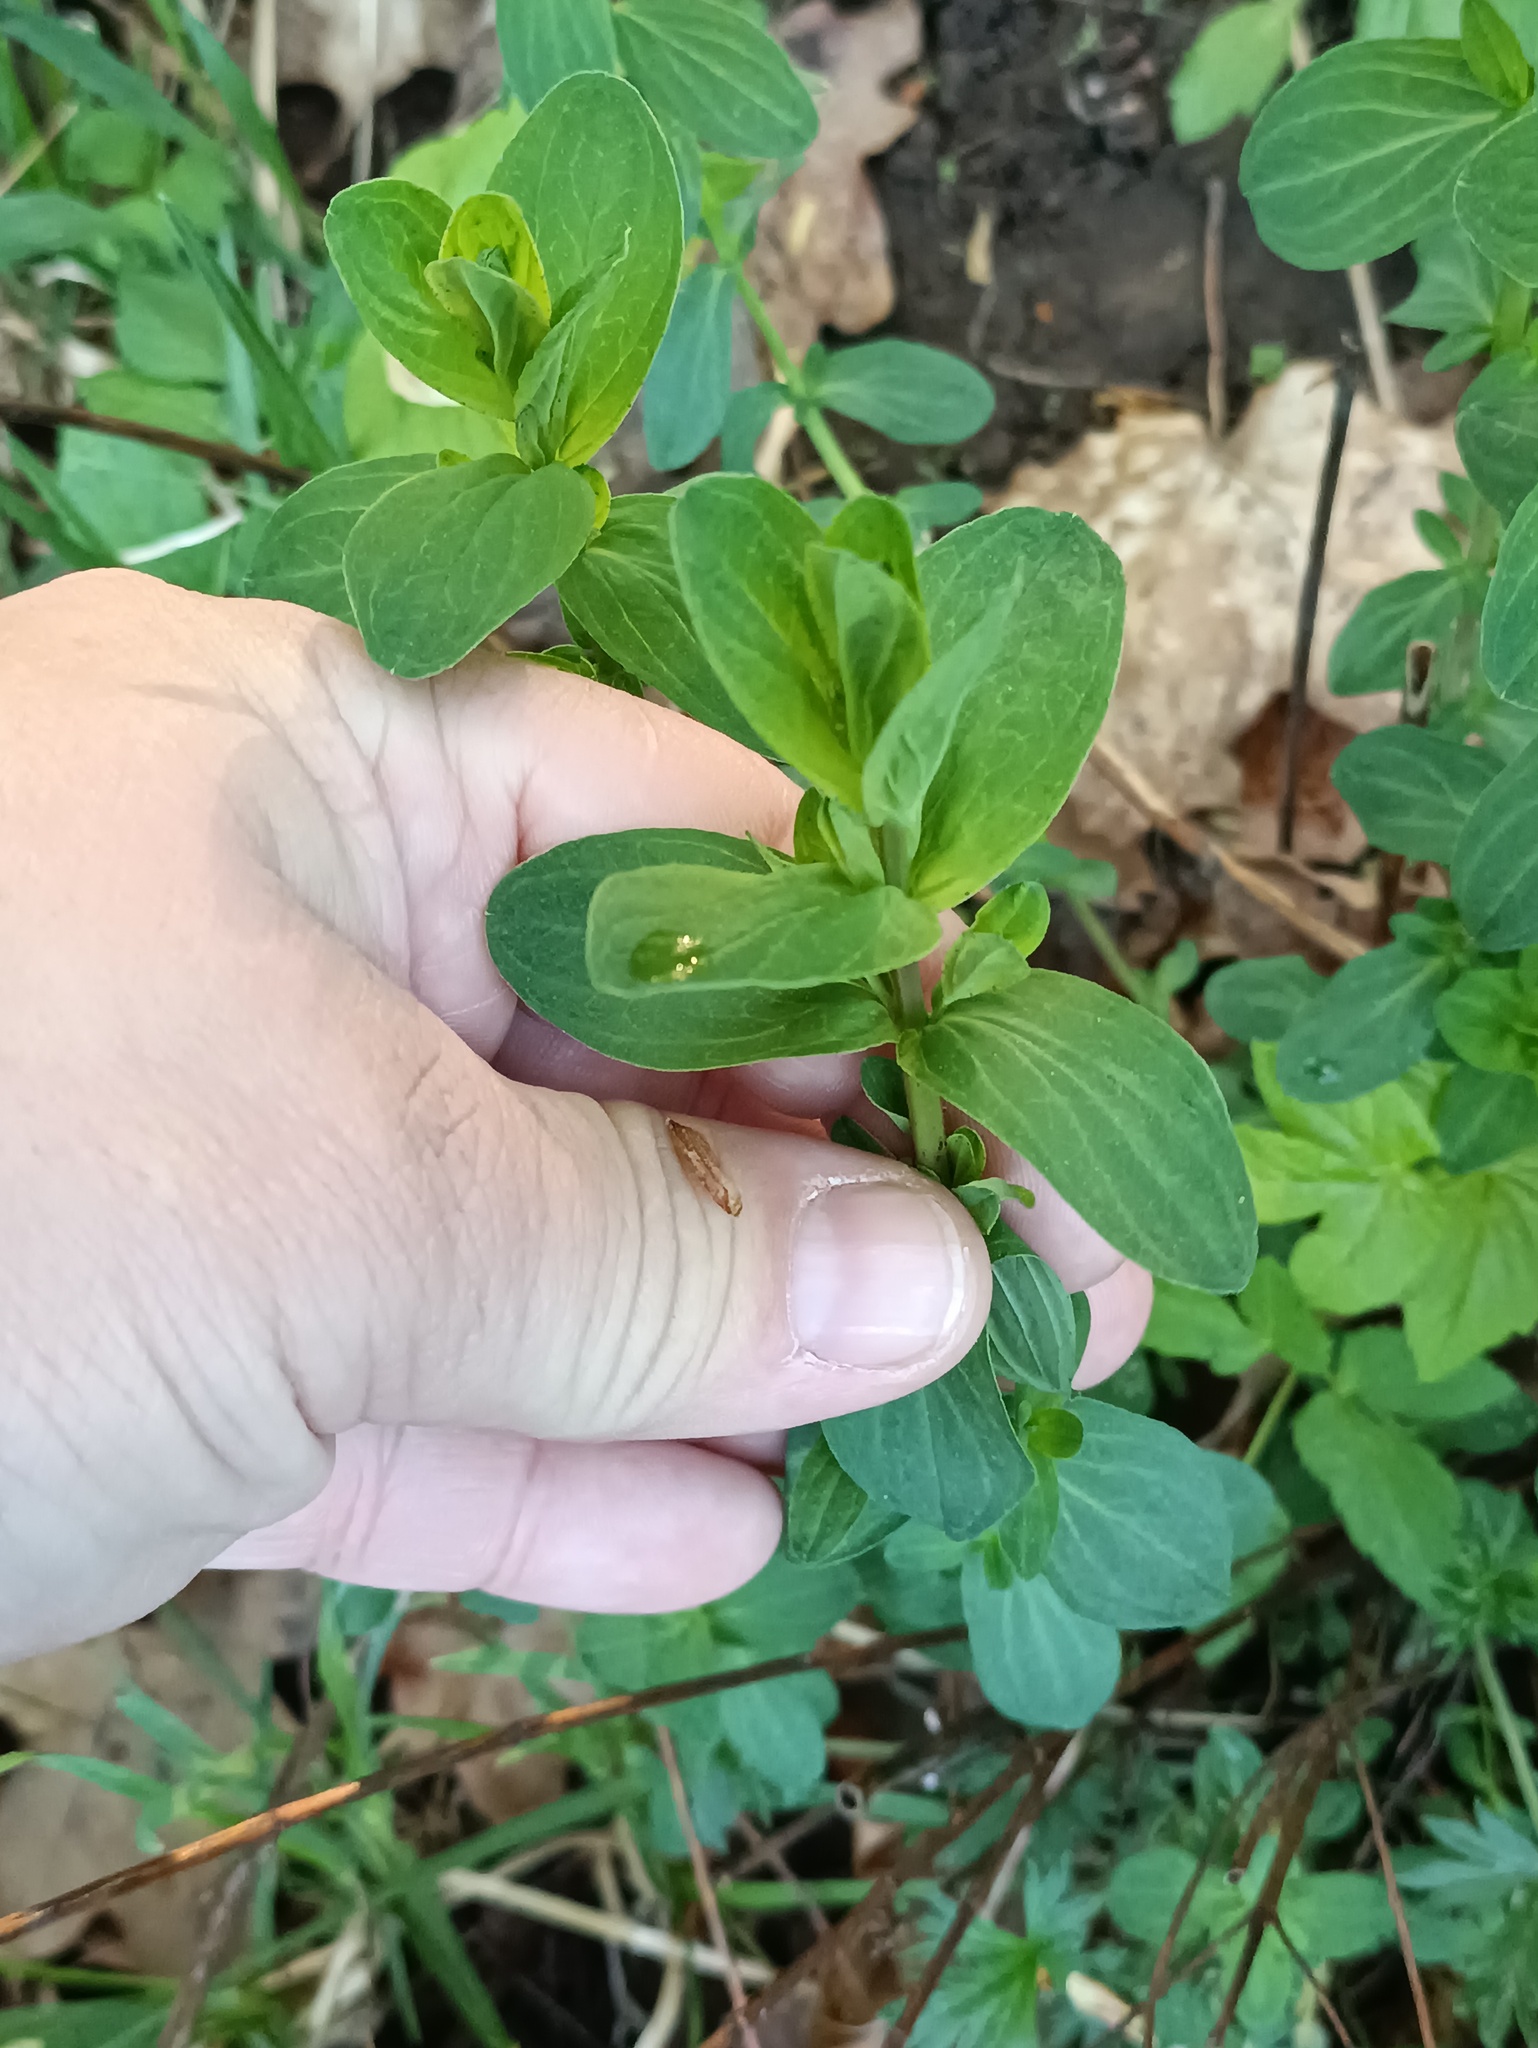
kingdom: Plantae
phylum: Tracheophyta
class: Magnoliopsida
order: Malpighiales
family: Hypericaceae
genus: Hypericum
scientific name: Hypericum perforatum
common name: Common st. johnswort
